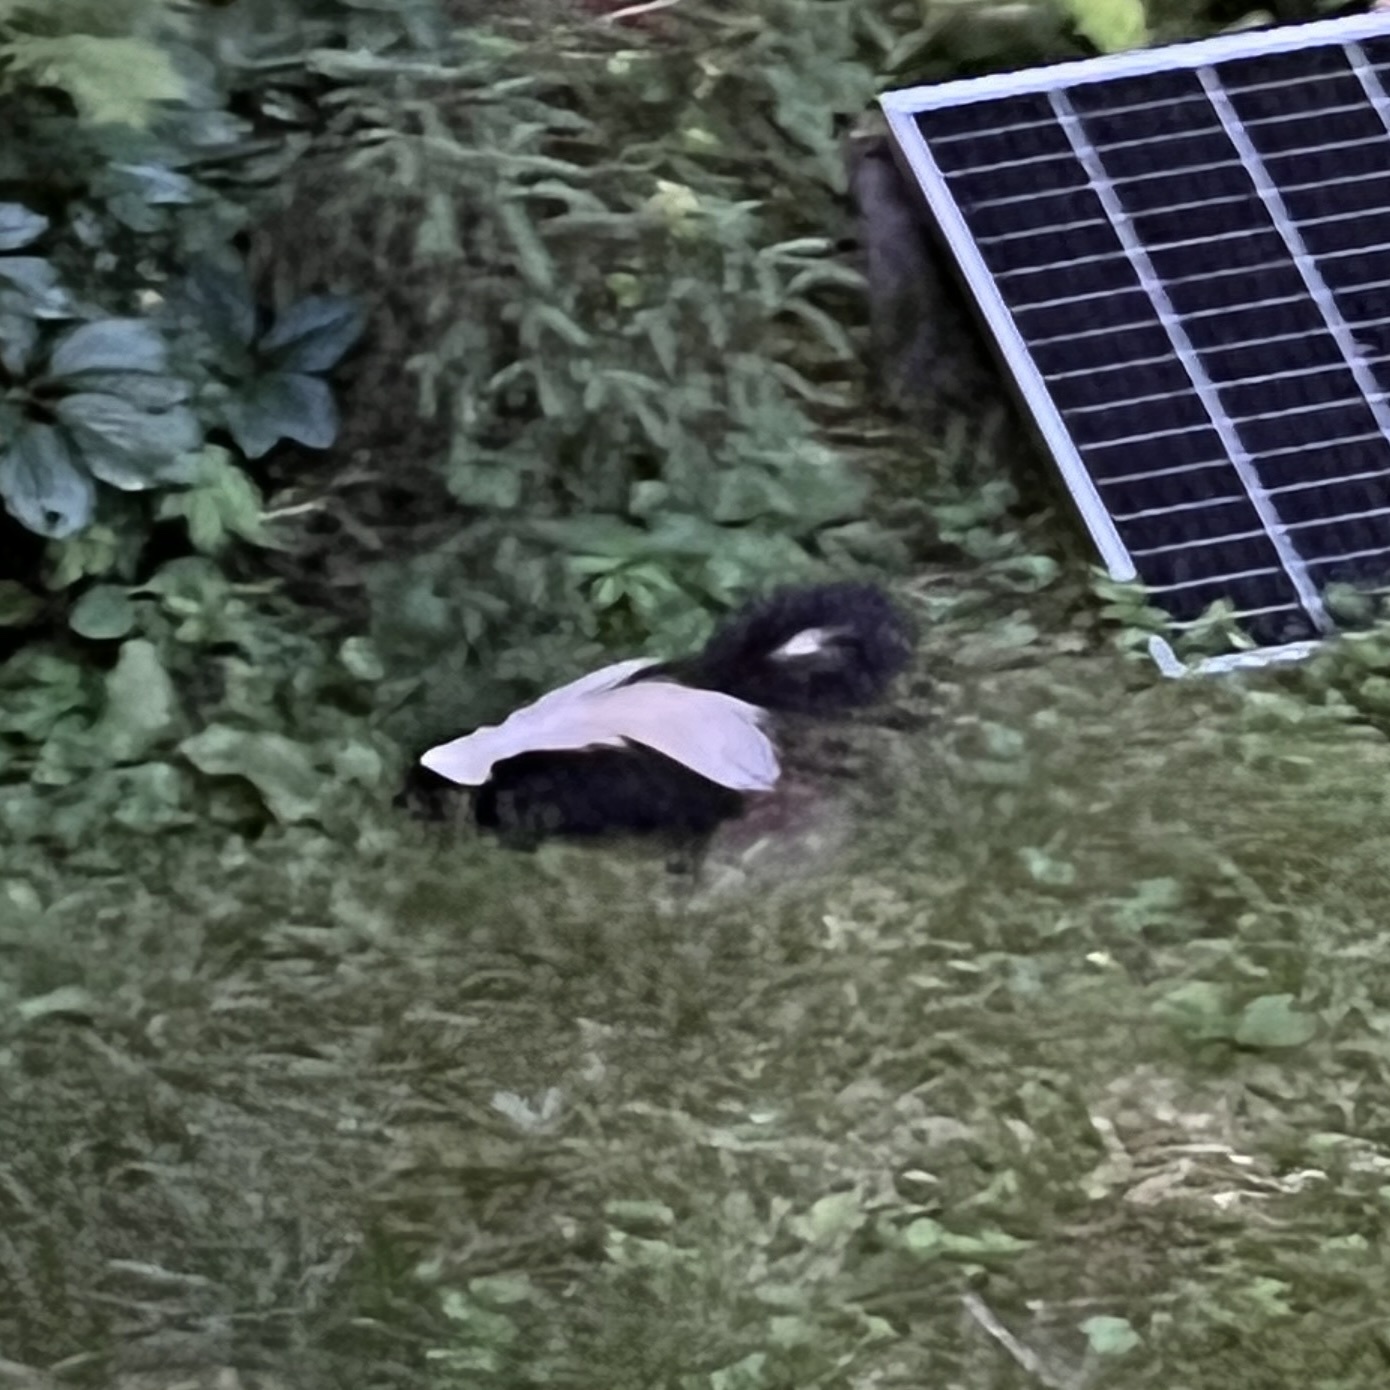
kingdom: Animalia
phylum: Chordata
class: Mammalia
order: Carnivora
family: Mephitidae
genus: Mephitis
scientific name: Mephitis mephitis
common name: Striped skunk
